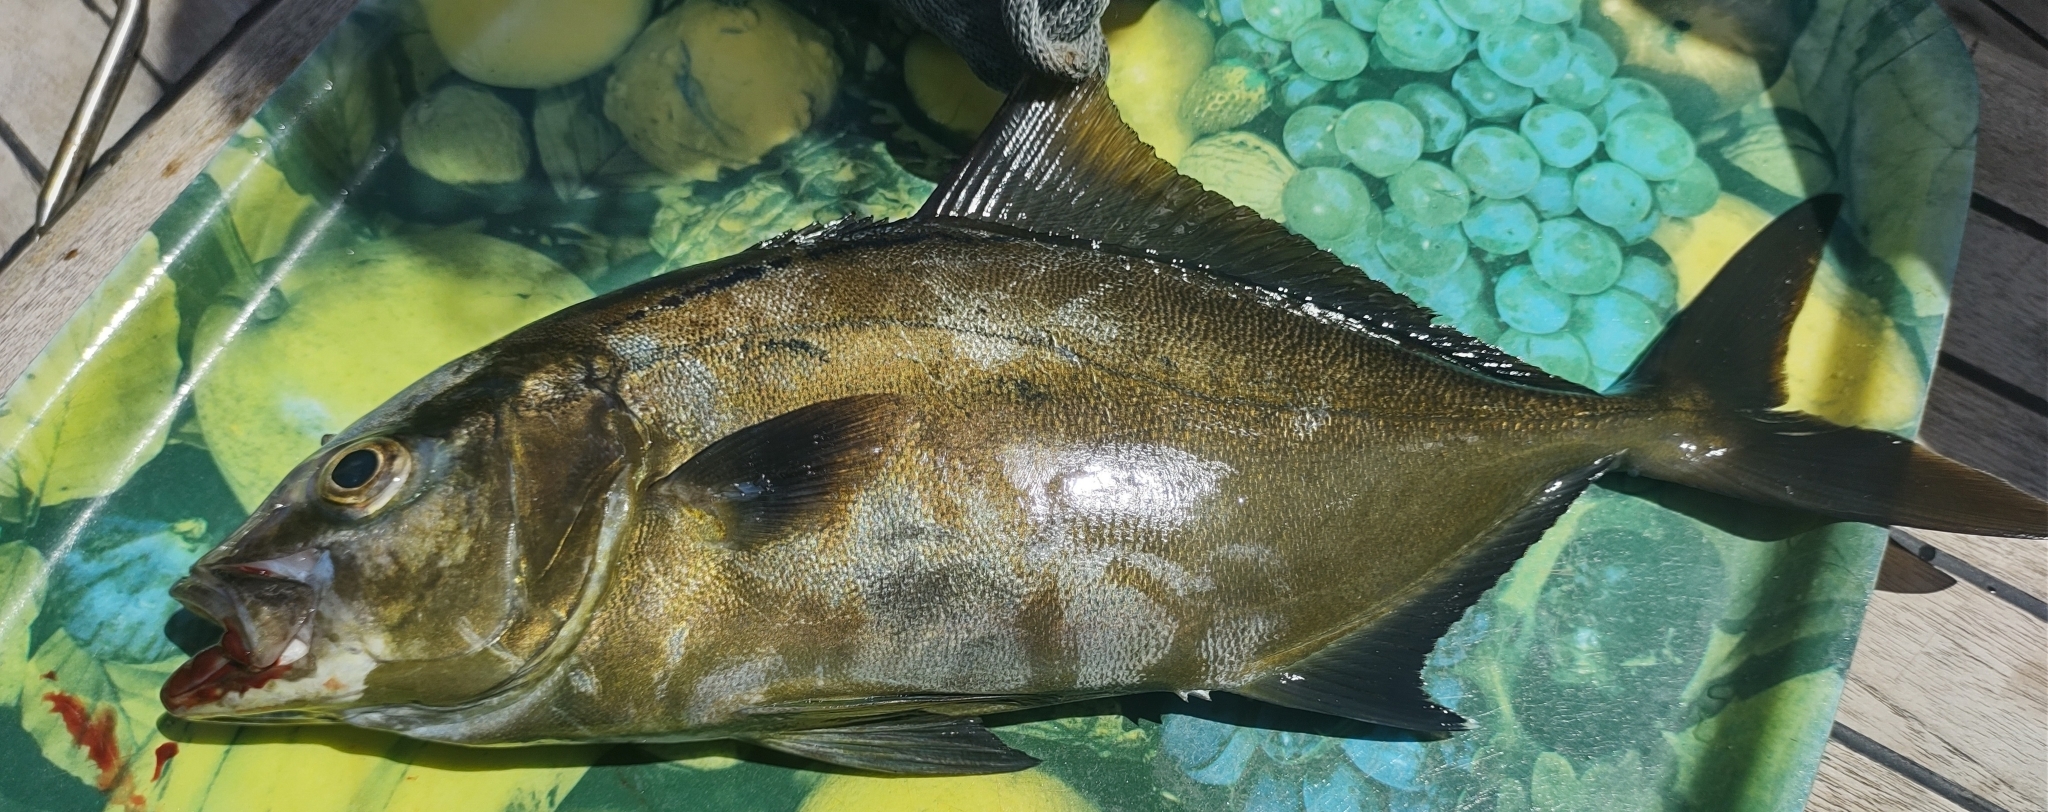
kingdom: Animalia
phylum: Chordata
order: Perciformes
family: Carangidae
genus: Seriola
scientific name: Seriola rivoliana
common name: Almaco jack
